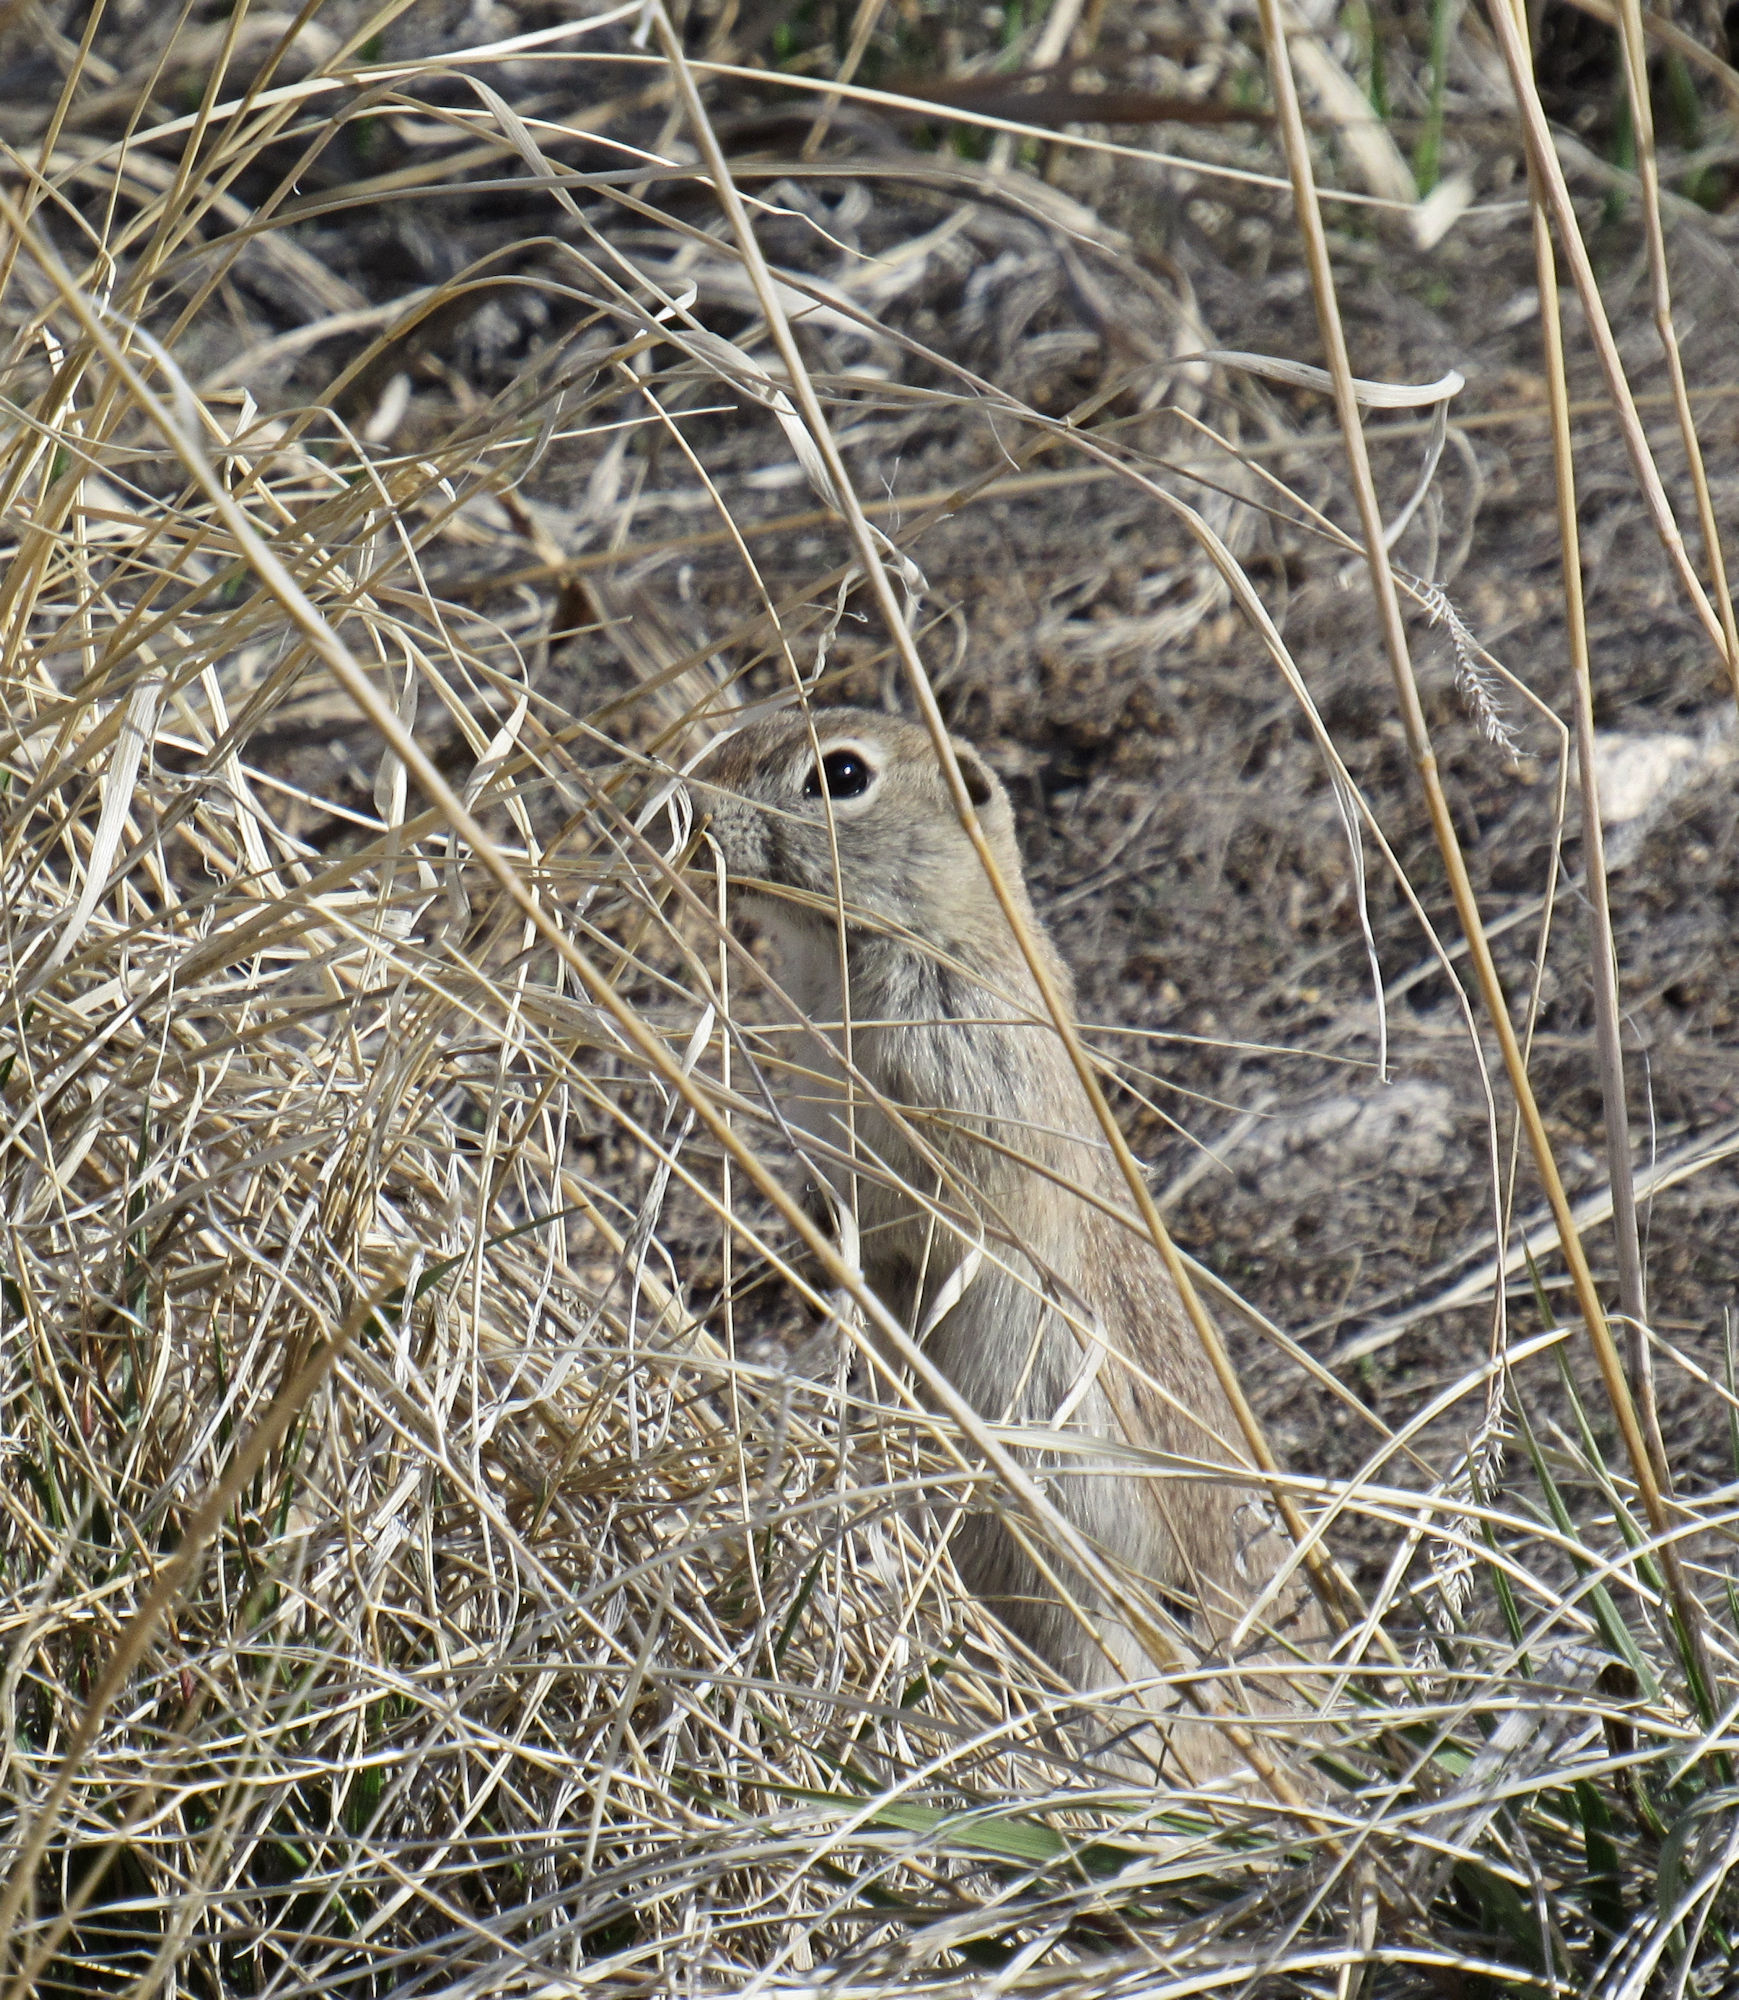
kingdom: Animalia
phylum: Chordata
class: Mammalia
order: Rodentia
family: Sciuridae
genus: Urocitellus
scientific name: Urocitellus mollis
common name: Piute ground squirrel
